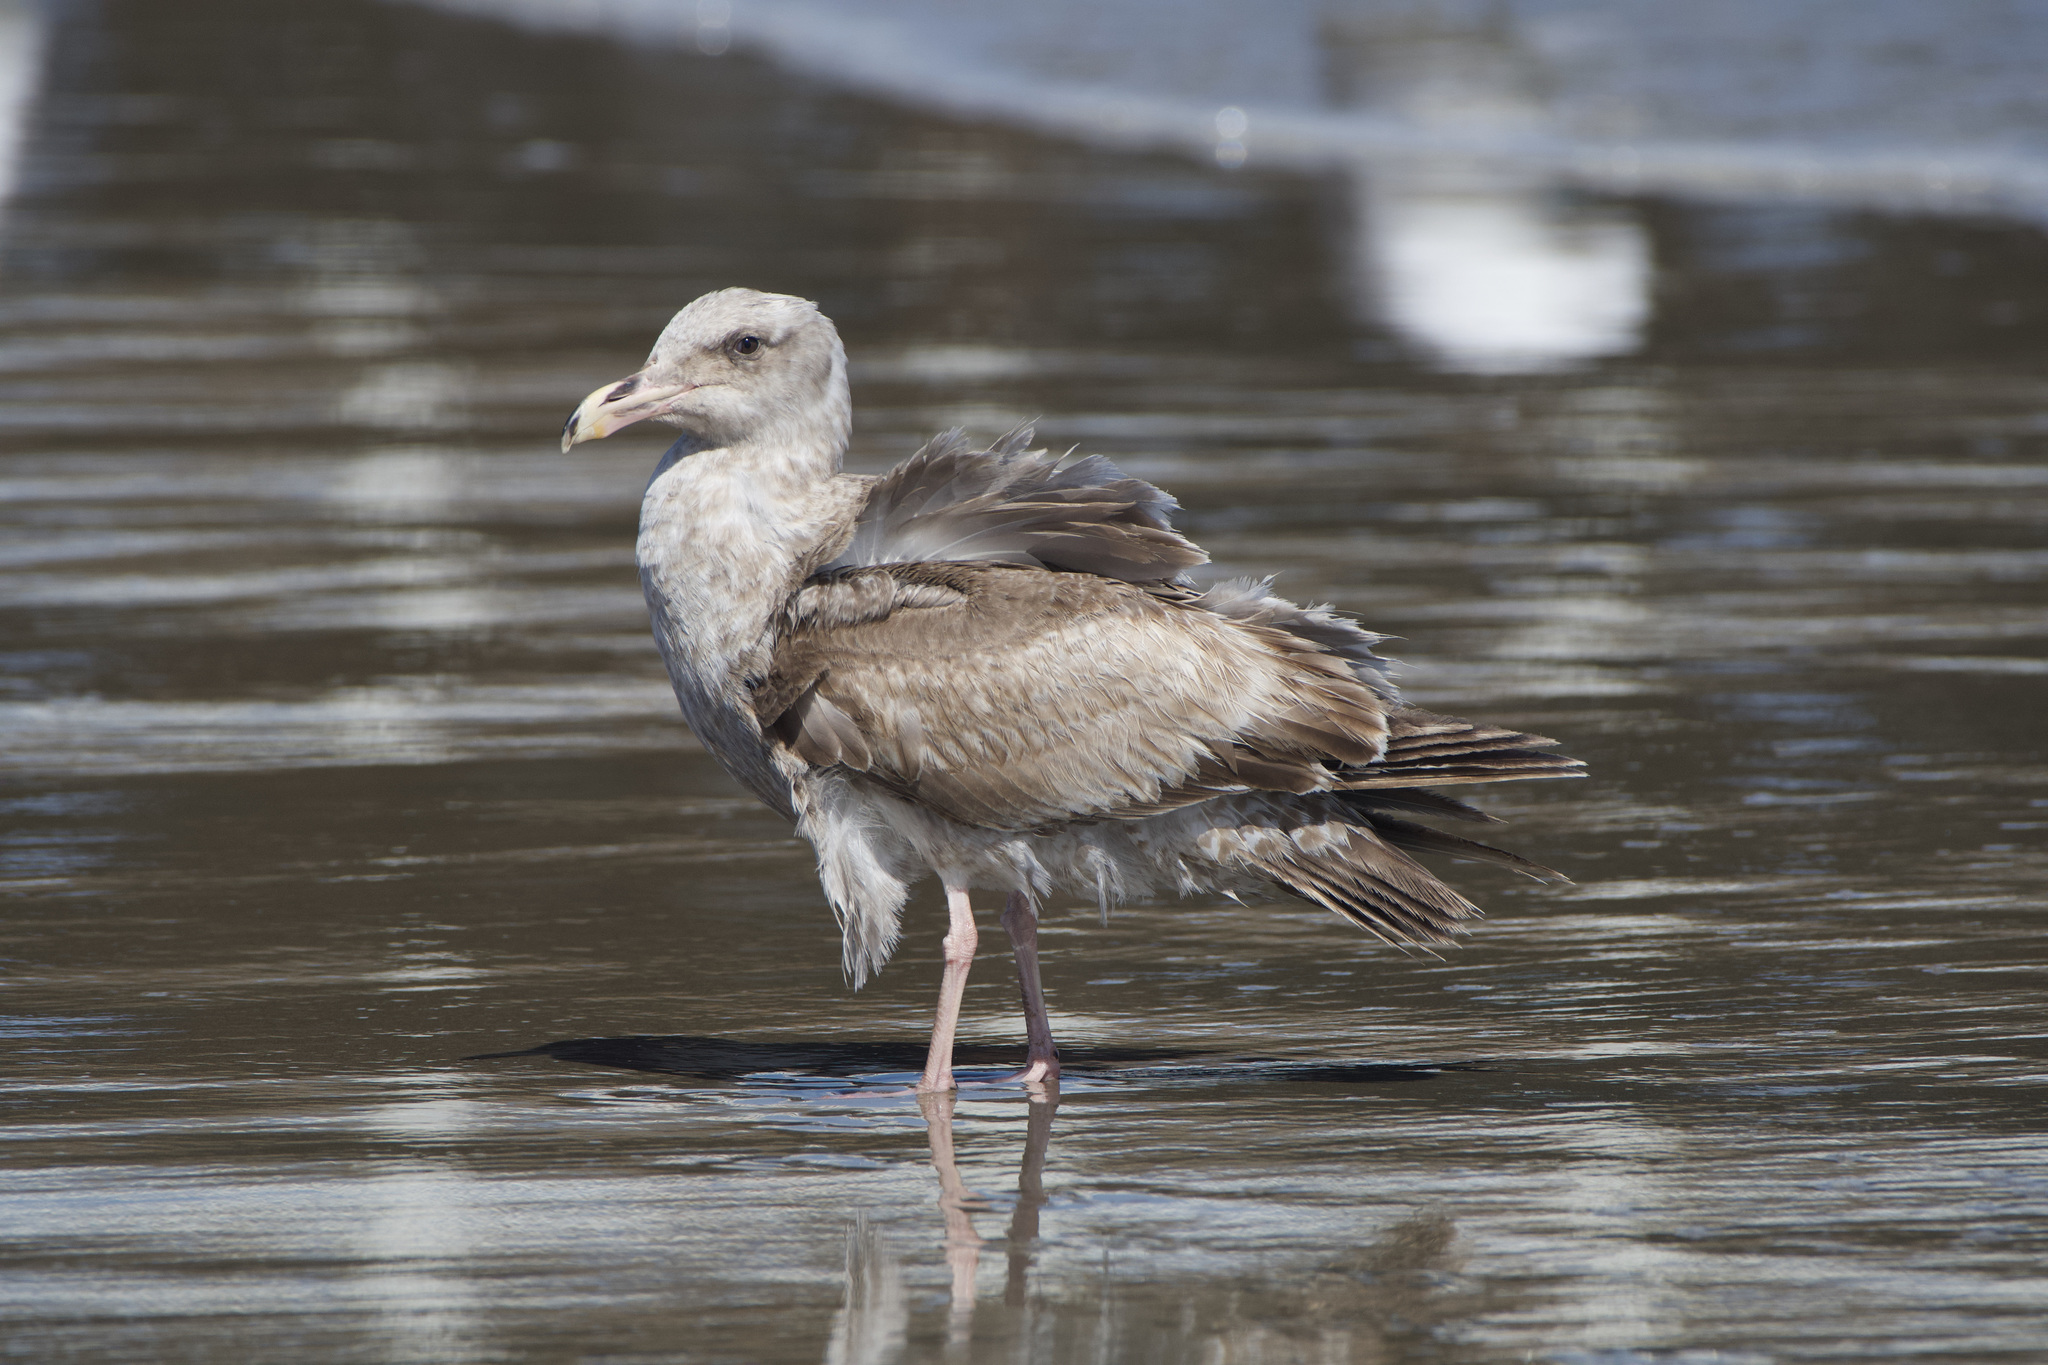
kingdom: Animalia
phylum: Chordata
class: Aves
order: Charadriiformes
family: Laridae
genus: Larus
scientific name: Larus occidentalis
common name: Western gull
